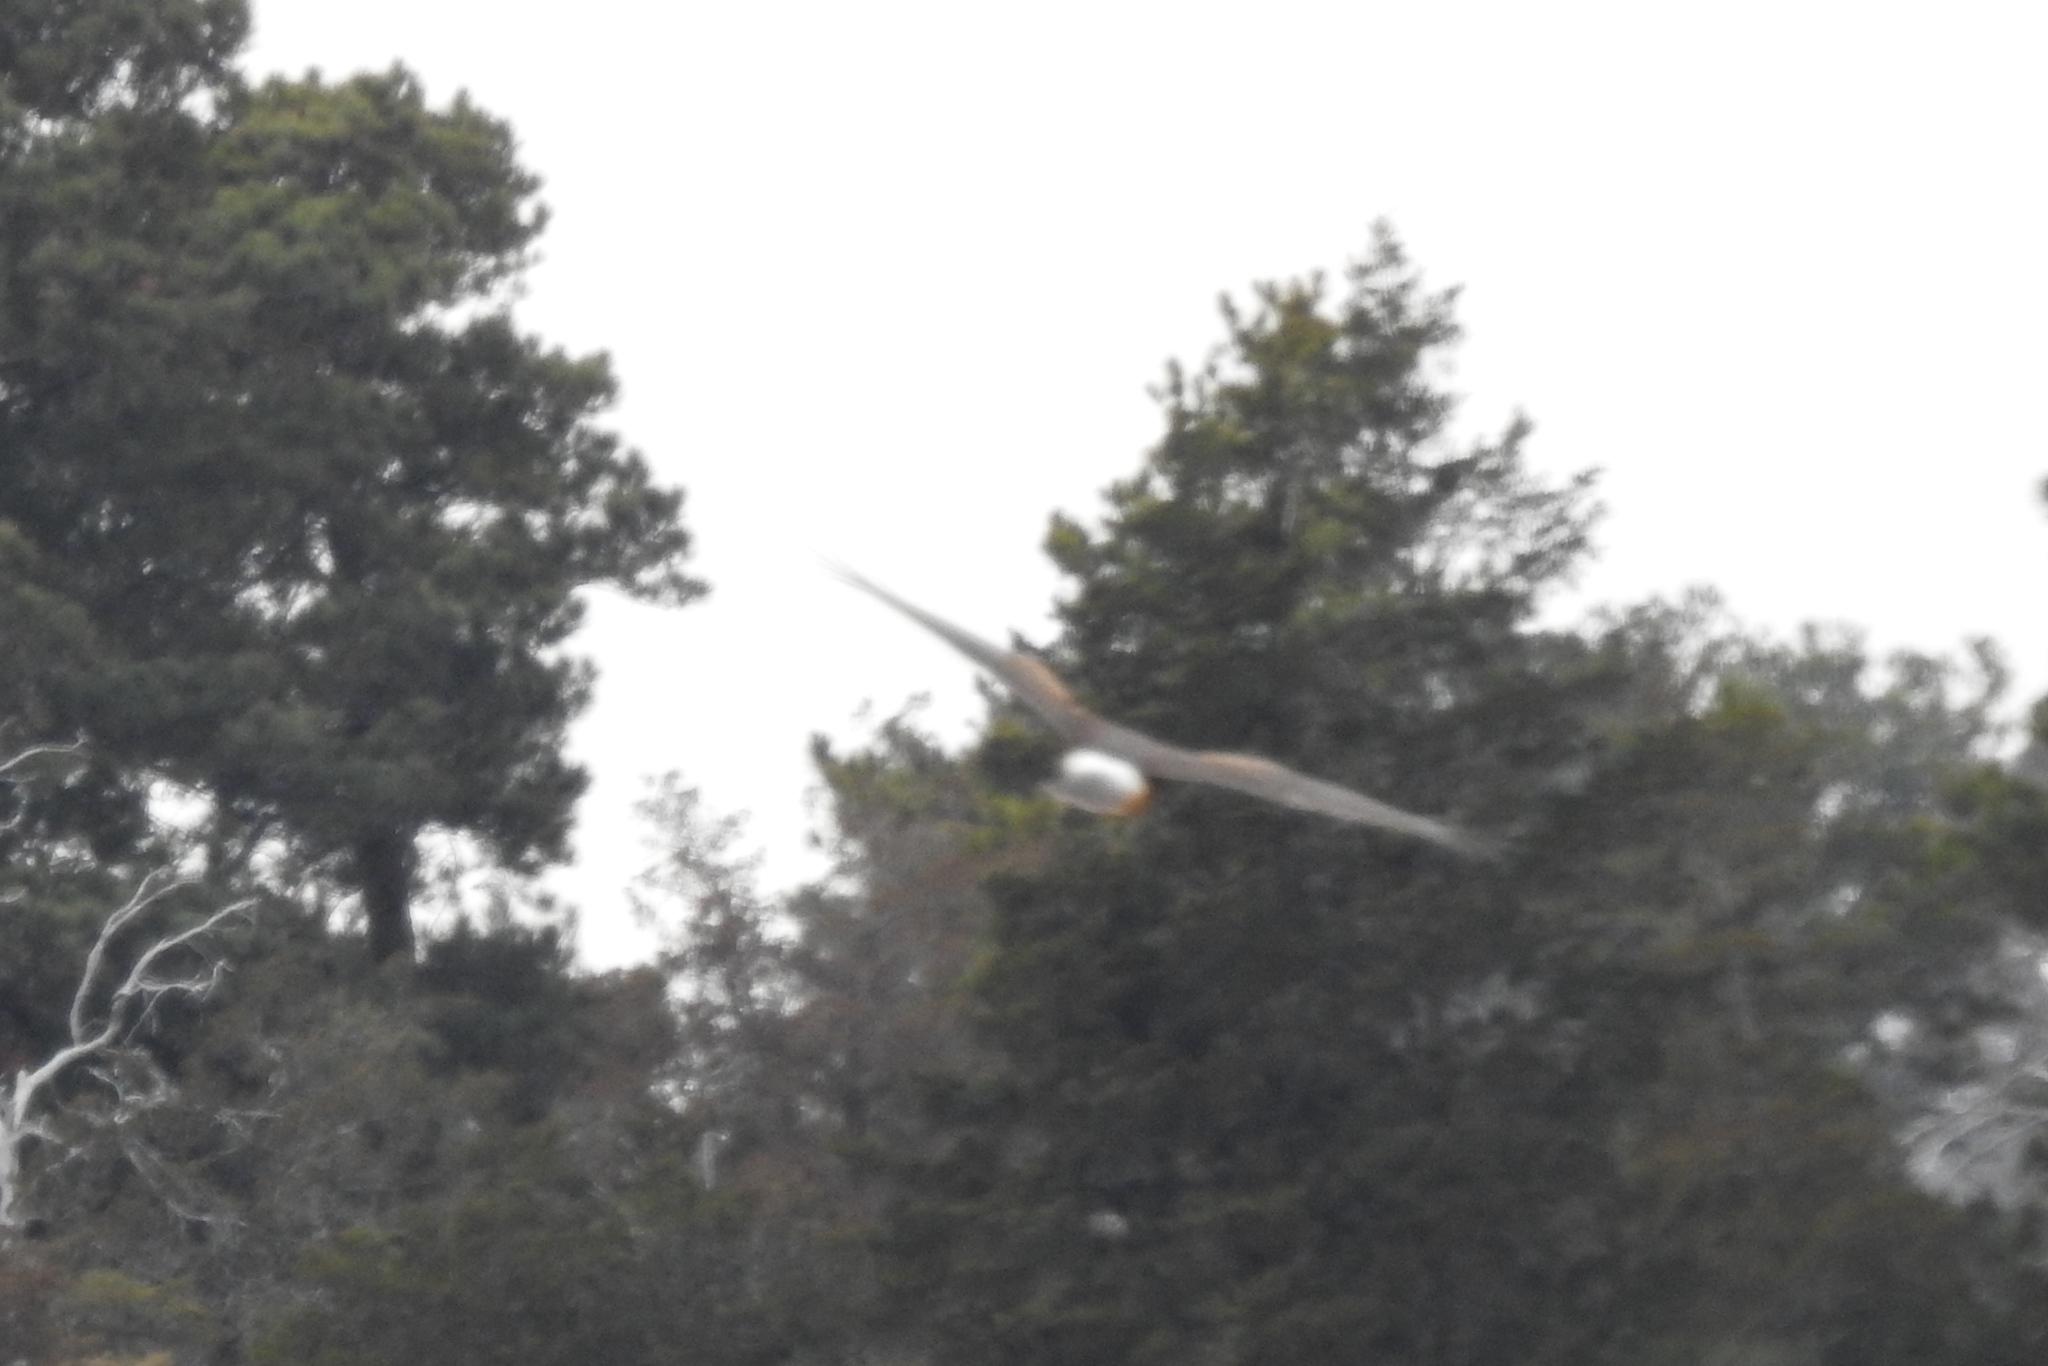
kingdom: Animalia
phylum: Chordata
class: Aves
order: Accipitriformes
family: Accipitridae
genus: Circus
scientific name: Circus cyaneus
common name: Hen harrier
